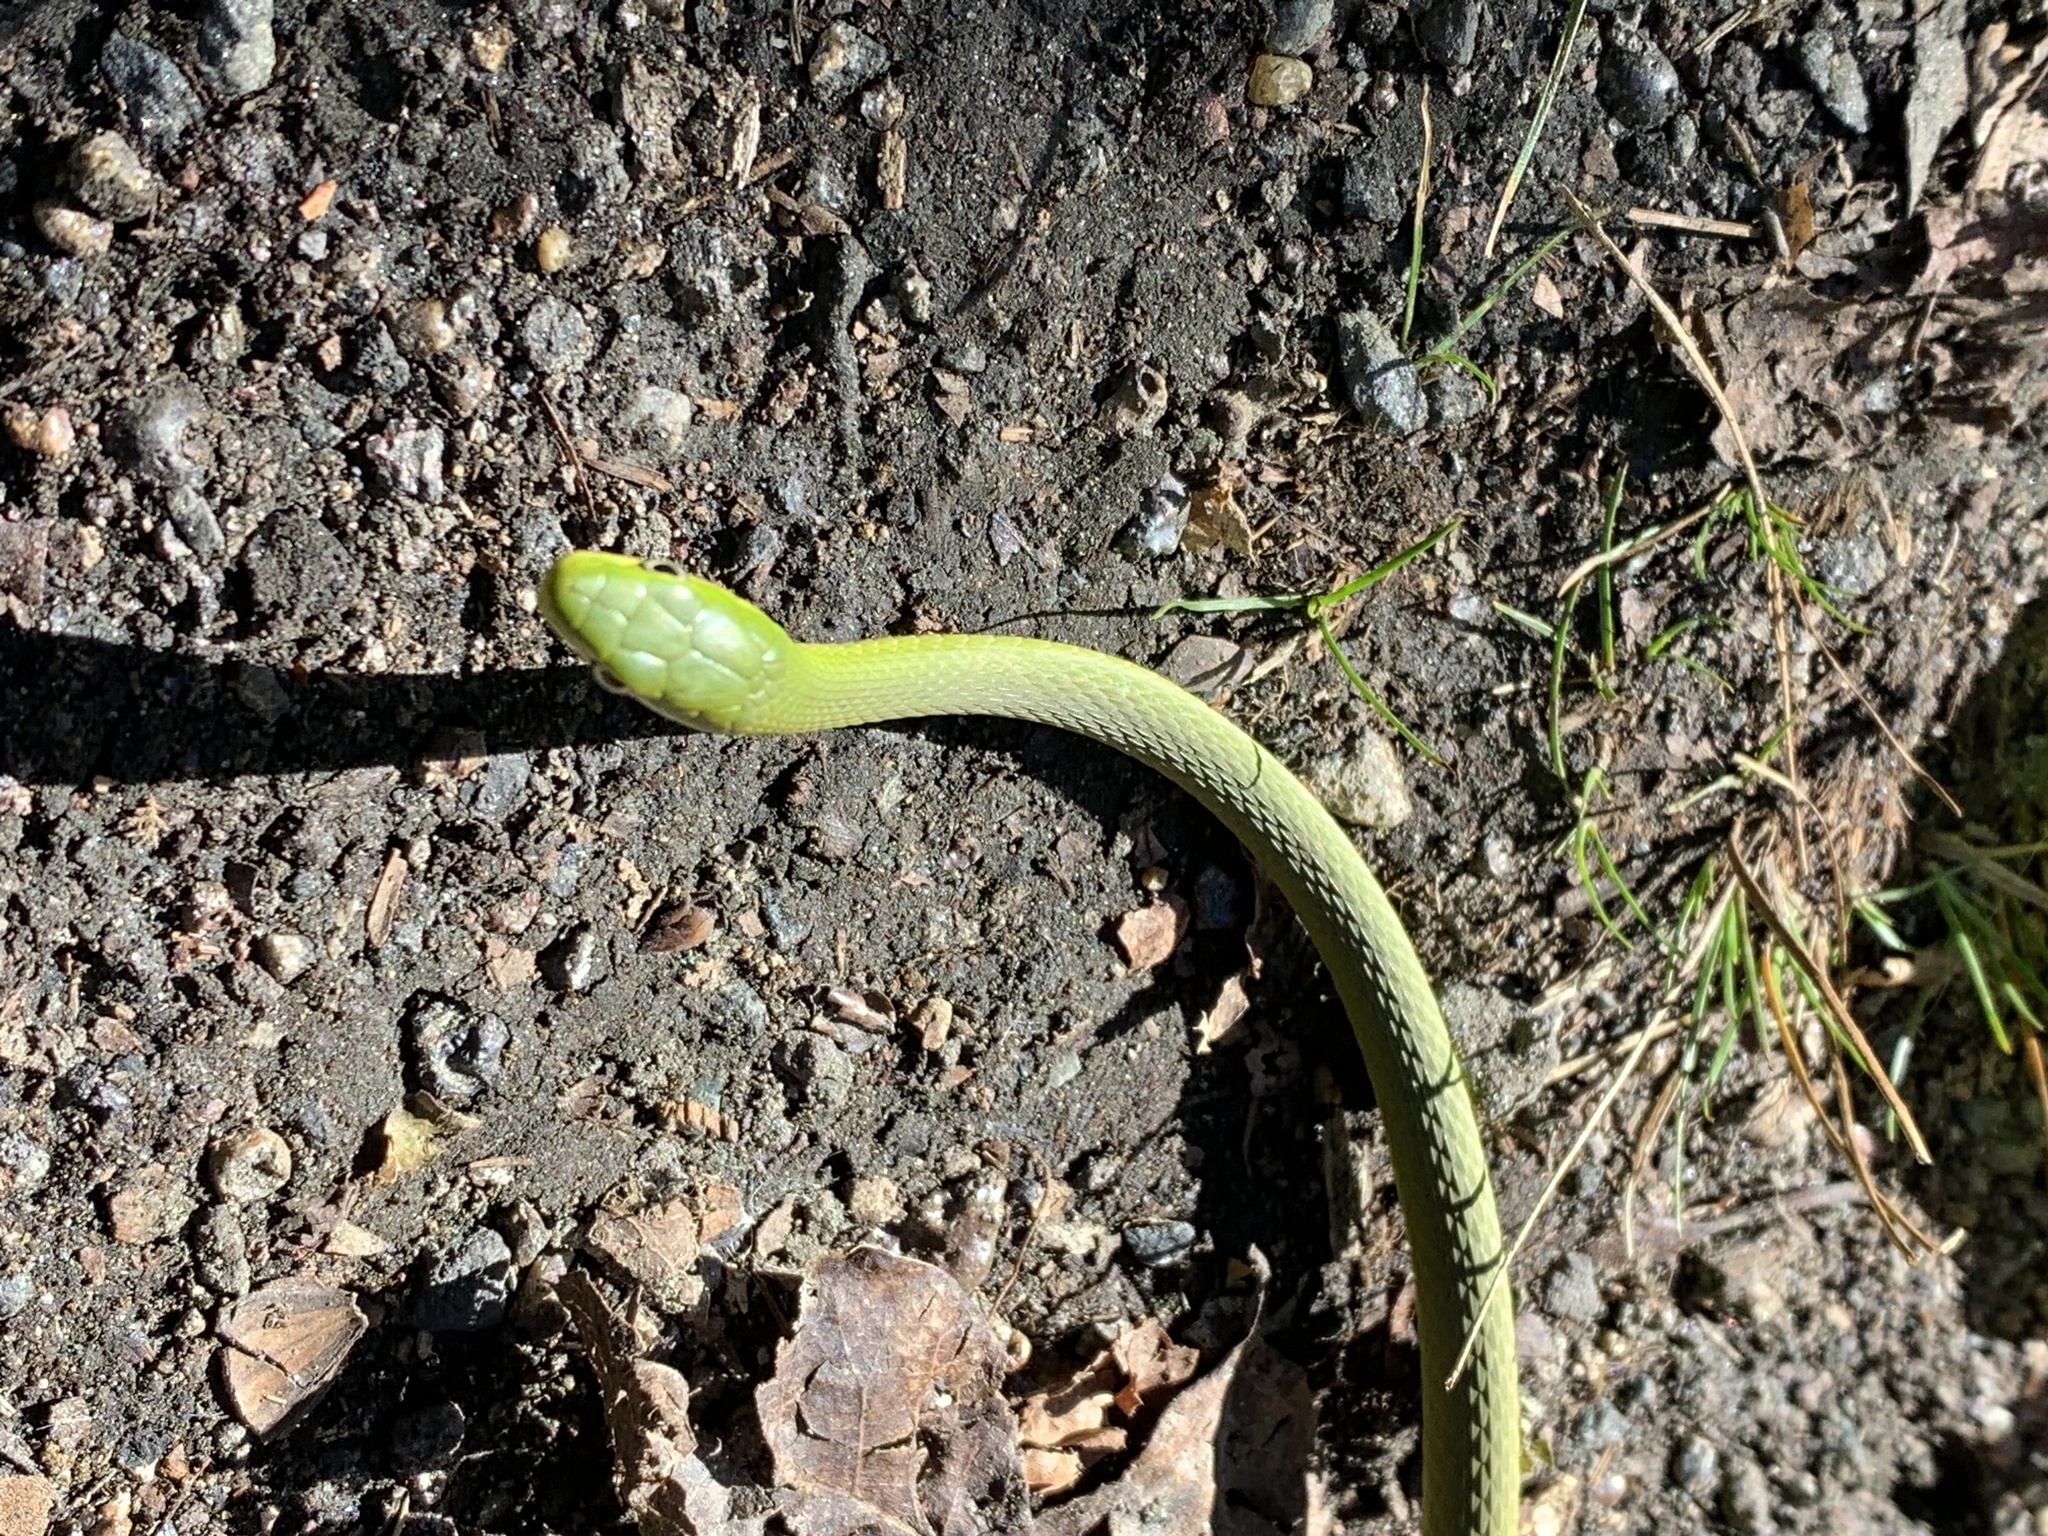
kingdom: Animalia
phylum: Chordata
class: Squamata
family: Colubridae
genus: Opheodrys
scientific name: Opheodrys aestivus
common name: Rough greensnake
